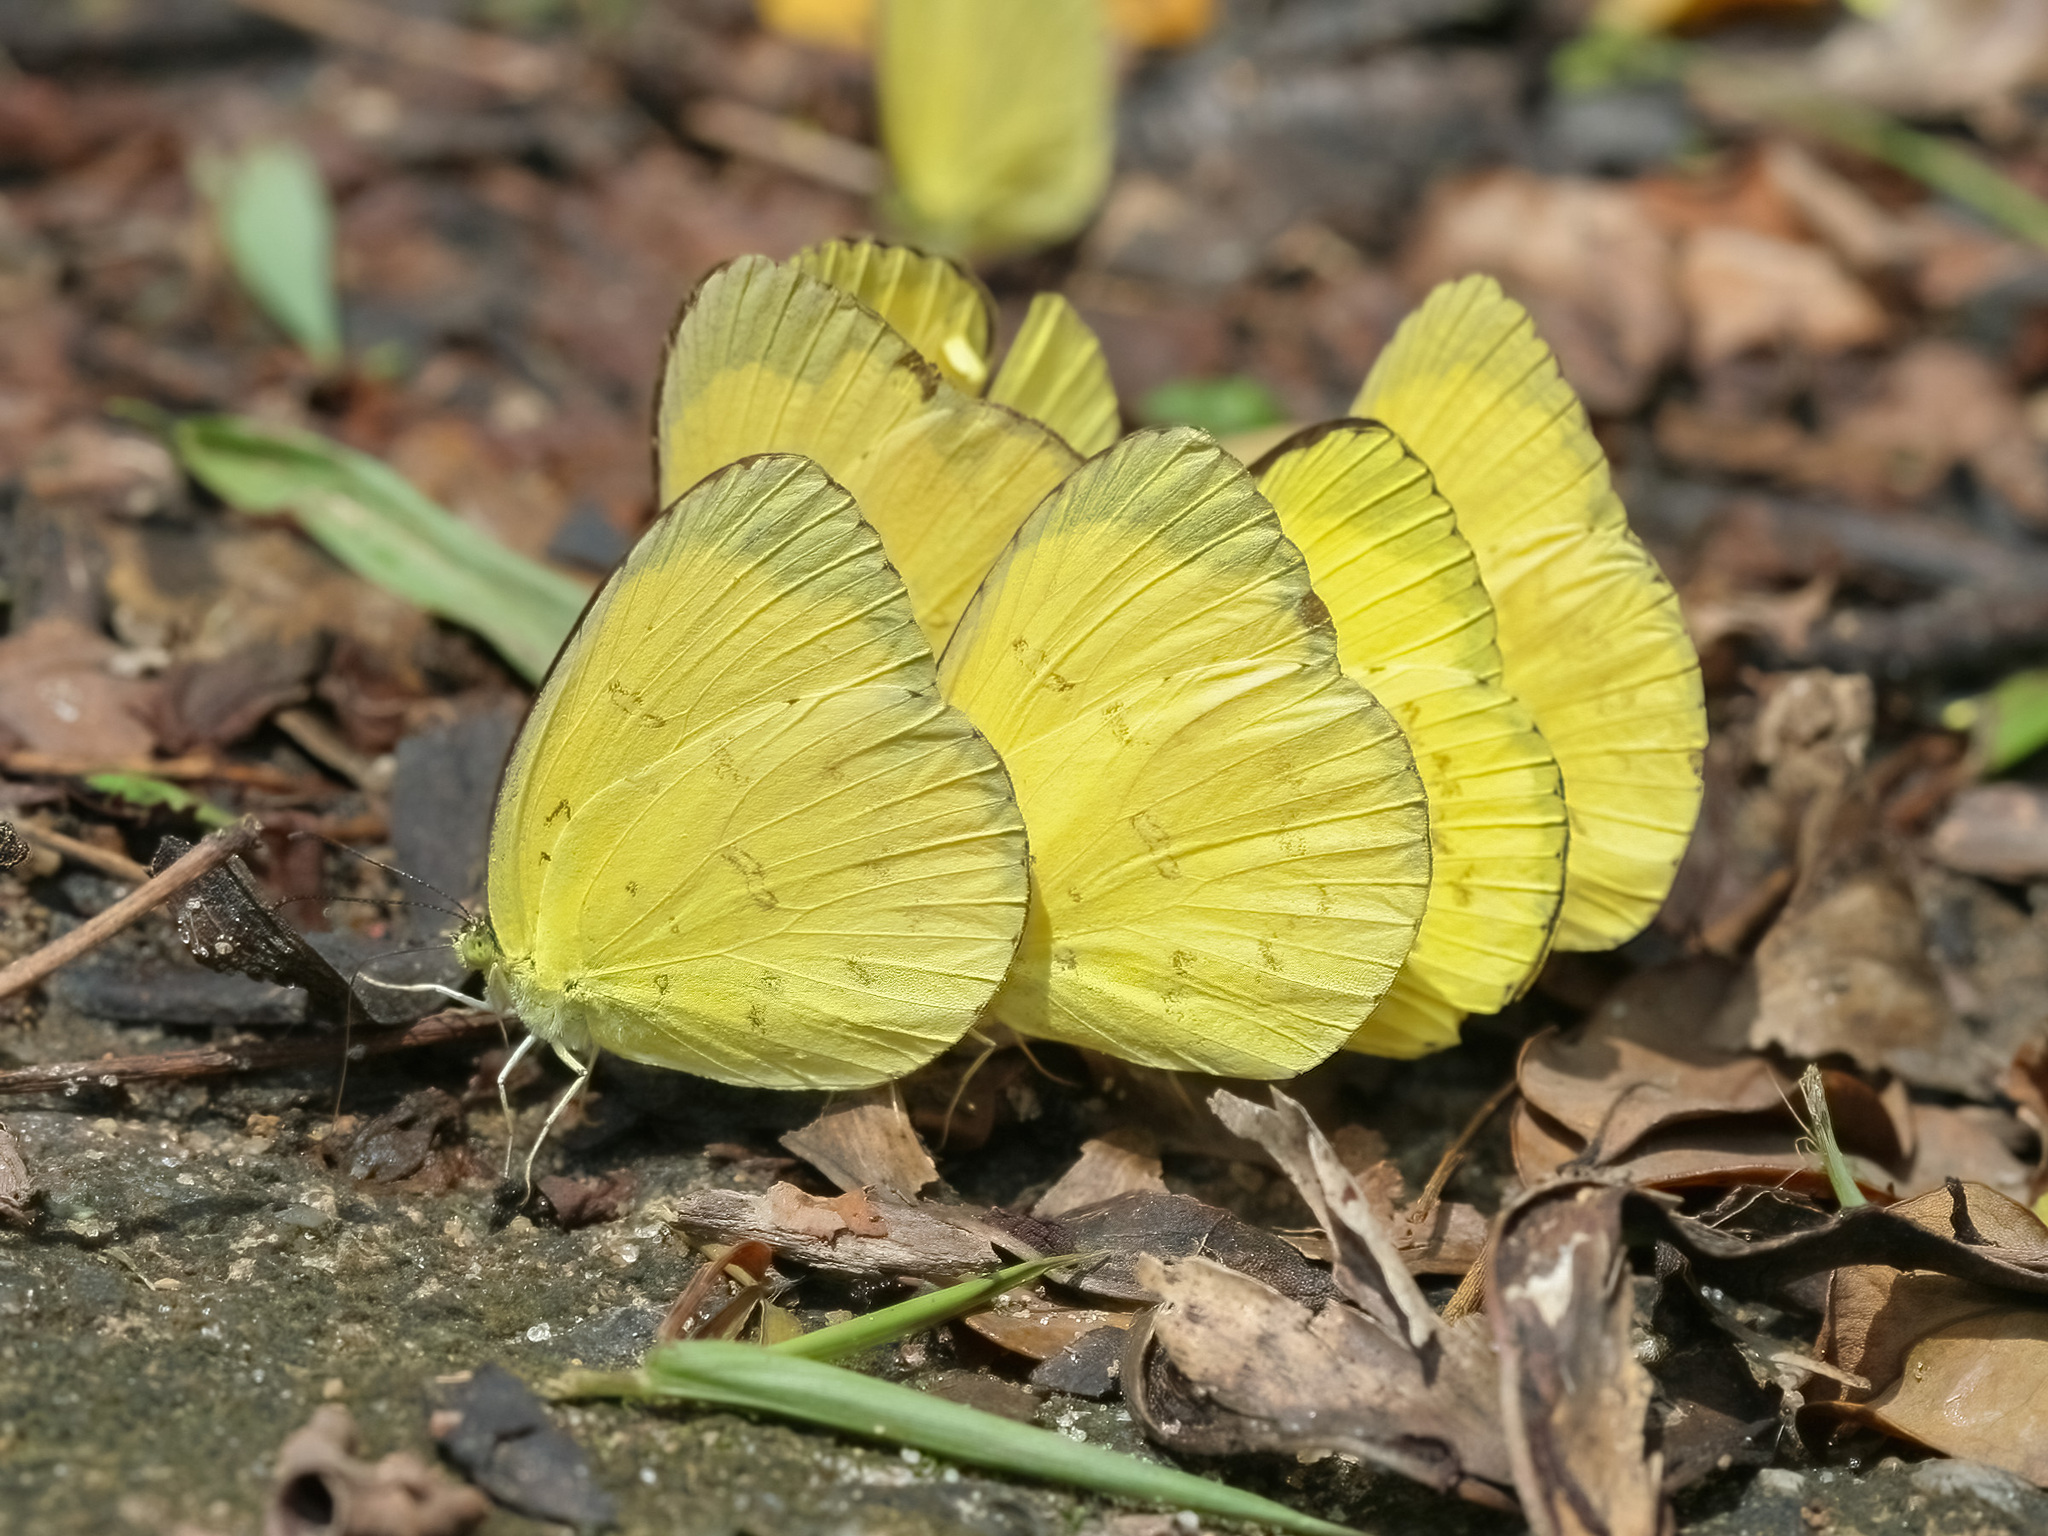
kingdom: Animalia
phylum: Arthropoda
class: Insecta
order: Lepidoptera
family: Pieridae
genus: Eurema
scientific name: Eurema blanda
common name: Three-spot grass yellow
